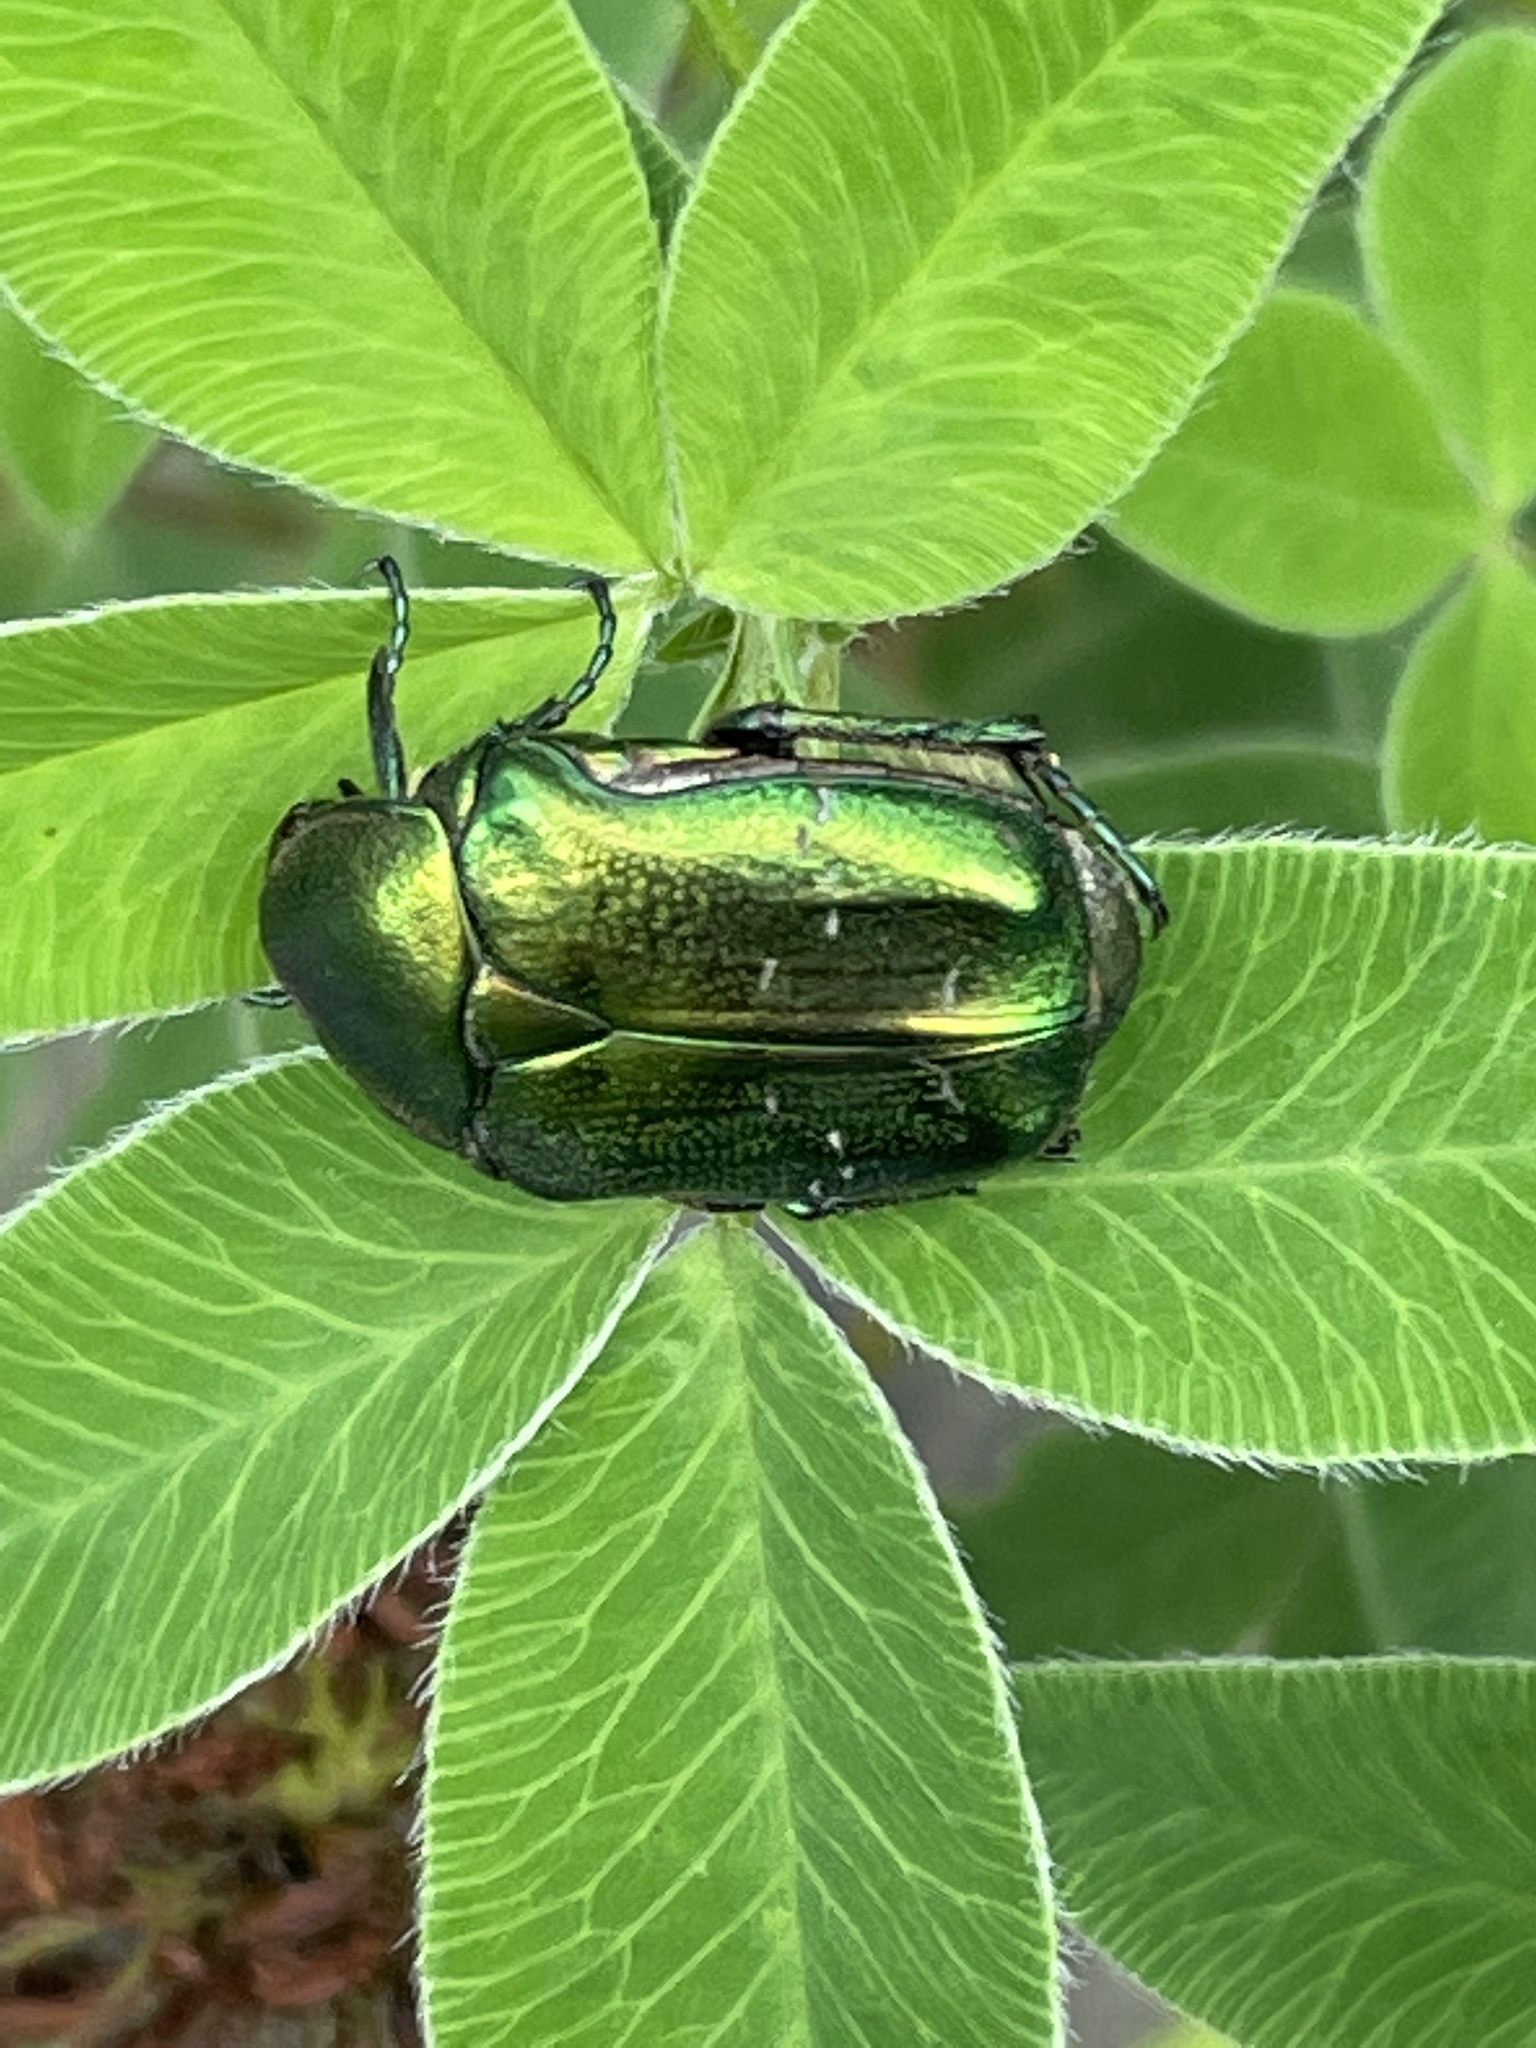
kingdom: Animalia
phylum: Arthropoda
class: Insecta
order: Coleoptera
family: Scarabaeidae
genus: Cetonia
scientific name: Cetonia aurata
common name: Rose chafer
